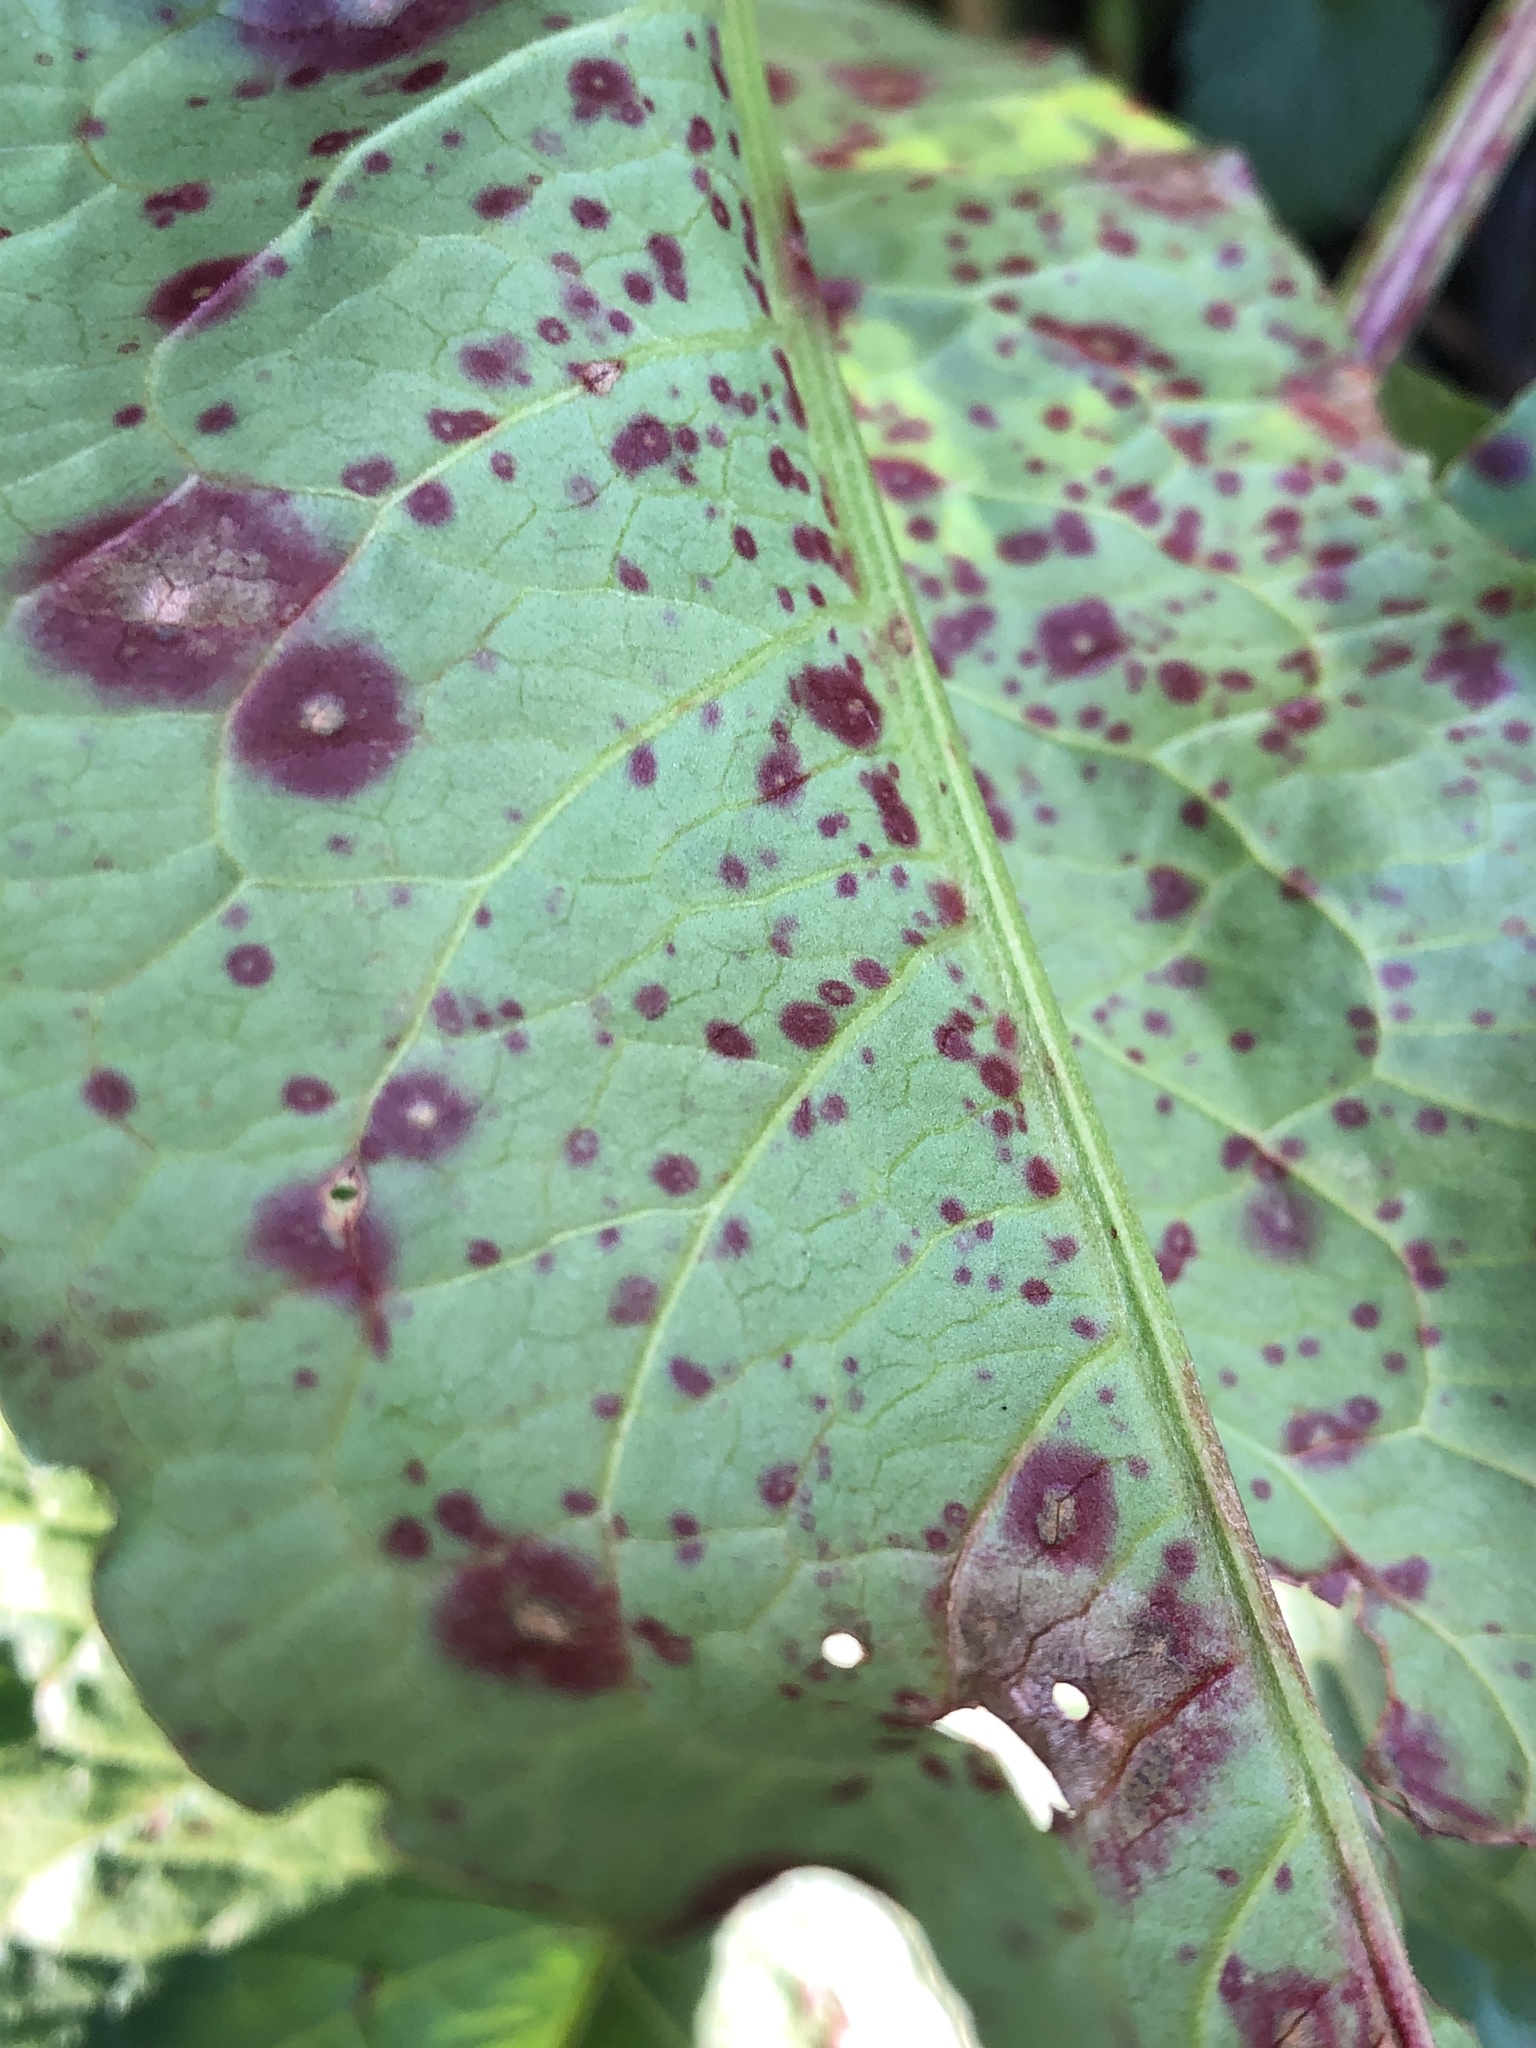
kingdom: Fungi
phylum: Ascomycota
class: Dothideomycetes
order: Mycosphaerellales
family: Mycosphaerellaceae
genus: Ramularia
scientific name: Ramularia rubella
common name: Red dock spot
